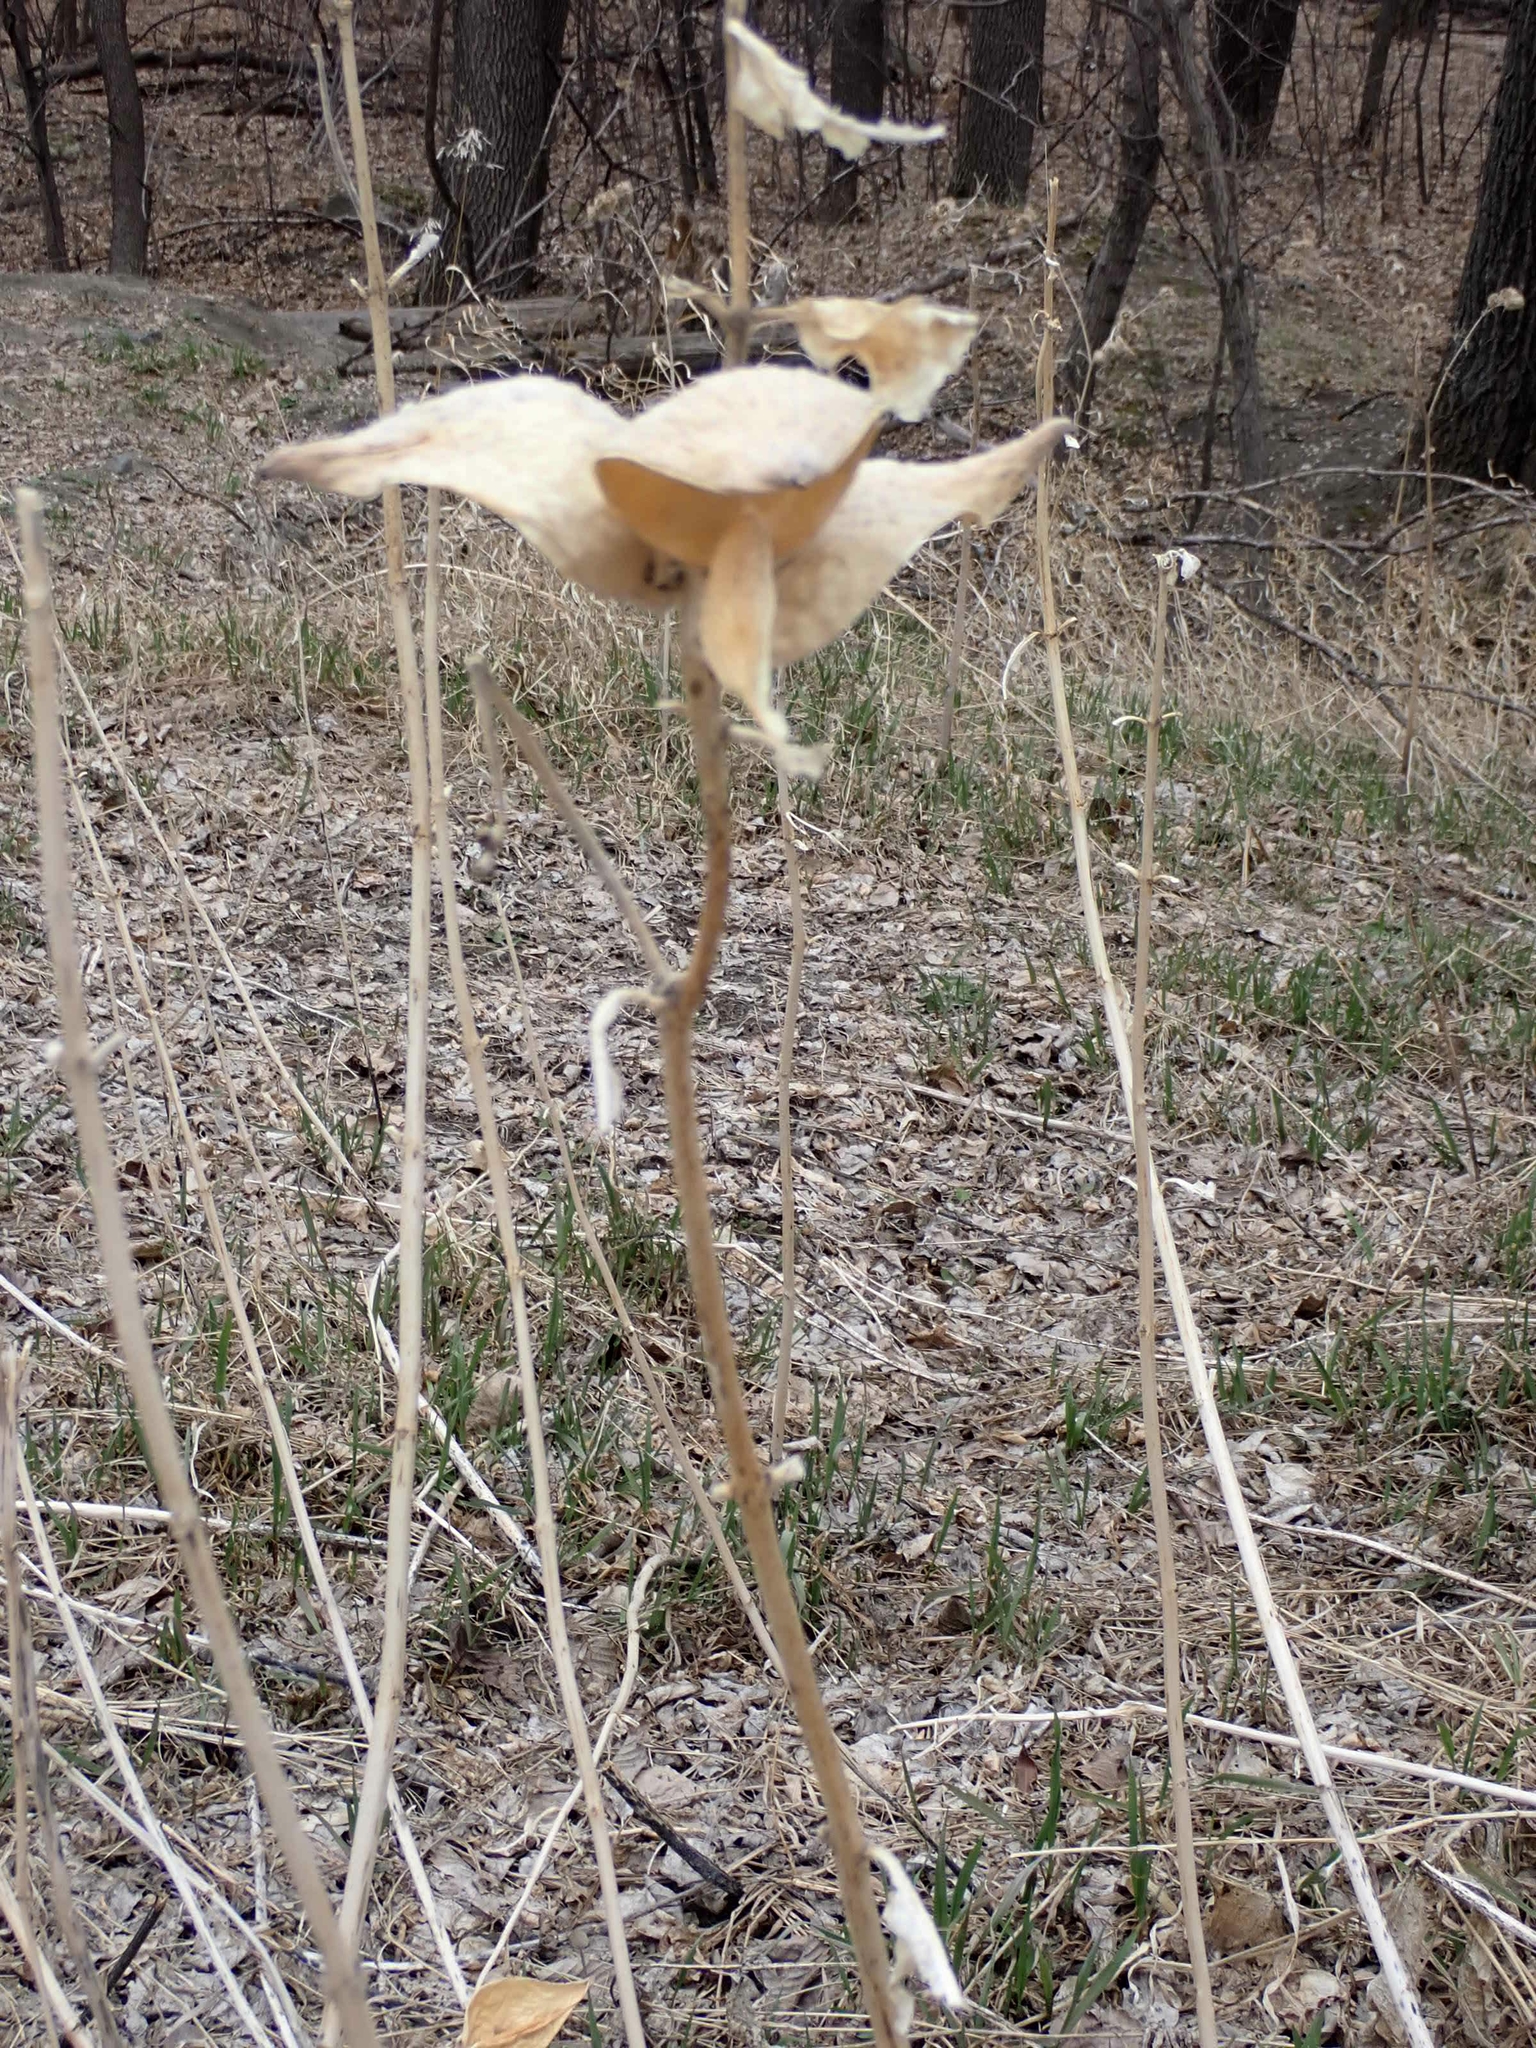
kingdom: Plantae
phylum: Tracheophyta
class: Magnoliopsida
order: Gentianales
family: Apocynaceae
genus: Asclepias
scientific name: Asclepias syriaca
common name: Common milkweed
